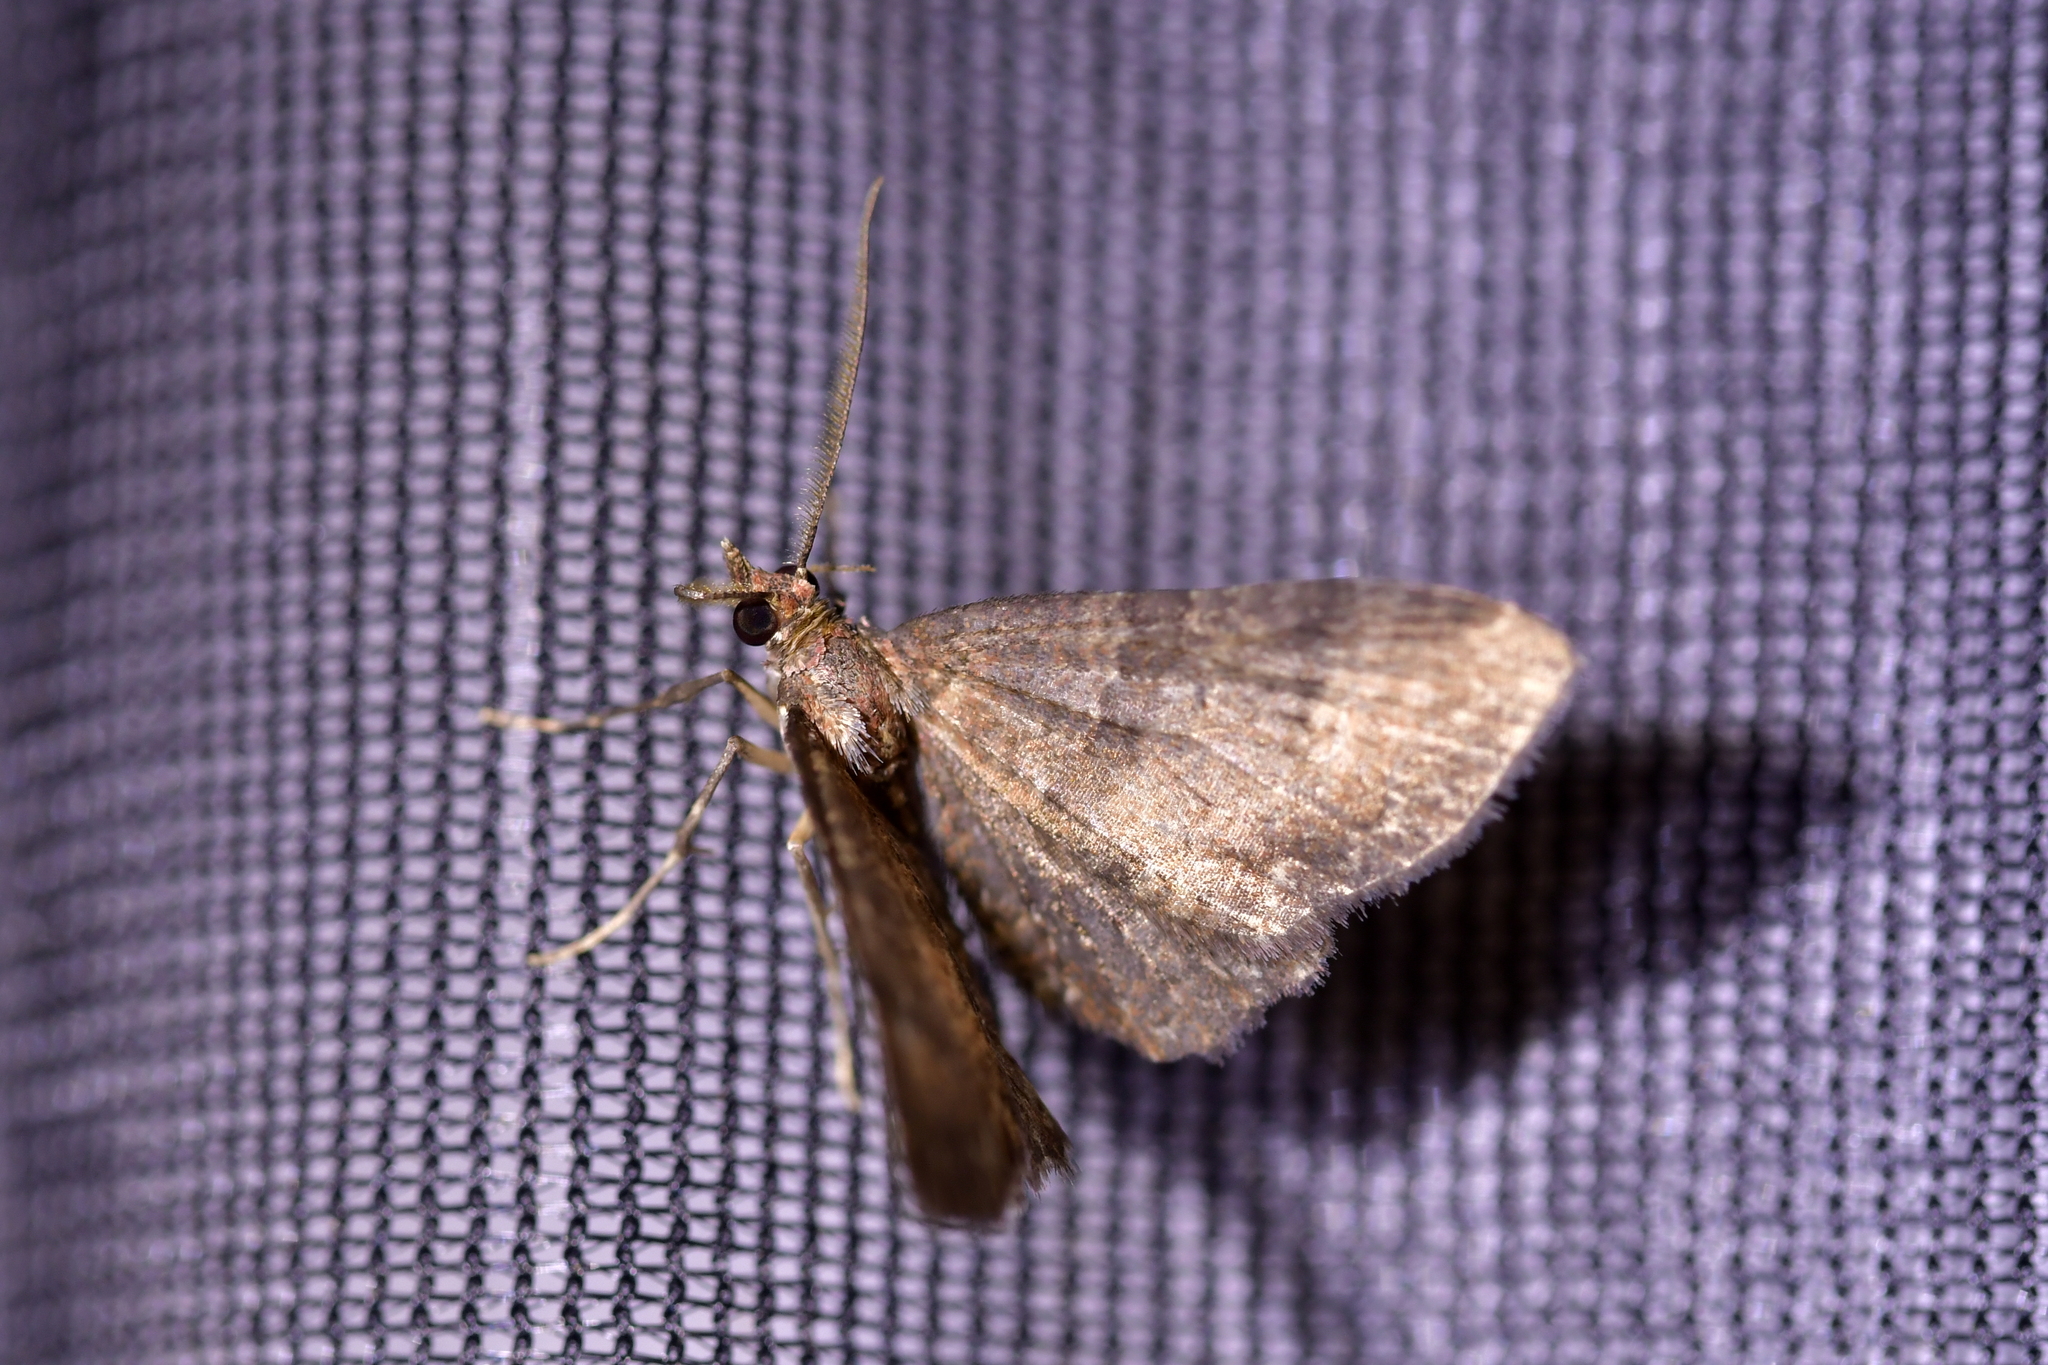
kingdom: Animalia
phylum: Arthropoda
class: Insecta
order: Lepidoptera
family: Geometridae
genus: Pasiphila
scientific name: Pasiphila dryas
